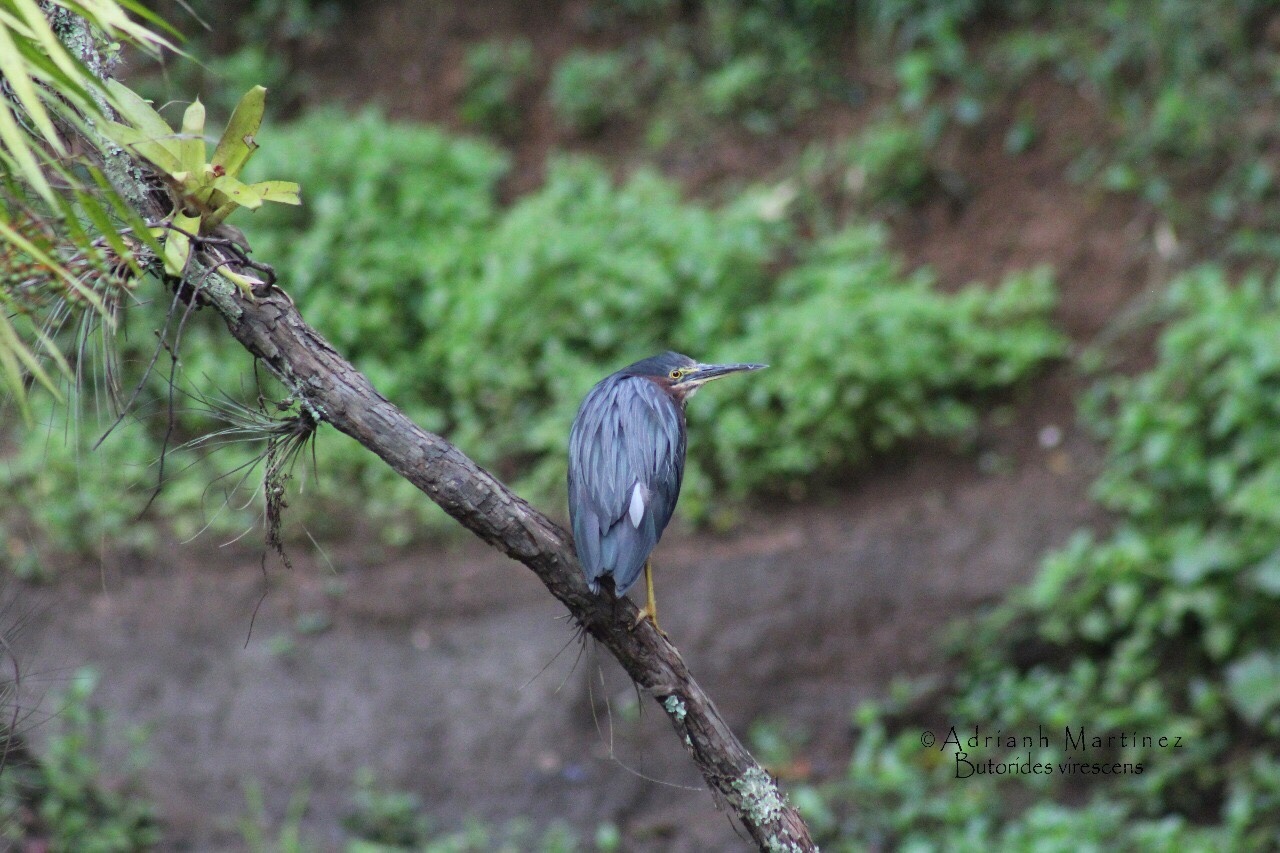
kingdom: Animalia
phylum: Chordata
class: Aves
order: Pelecaniformes
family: Ardeidae
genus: Butorides
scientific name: Butorides virescens
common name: Green heron
